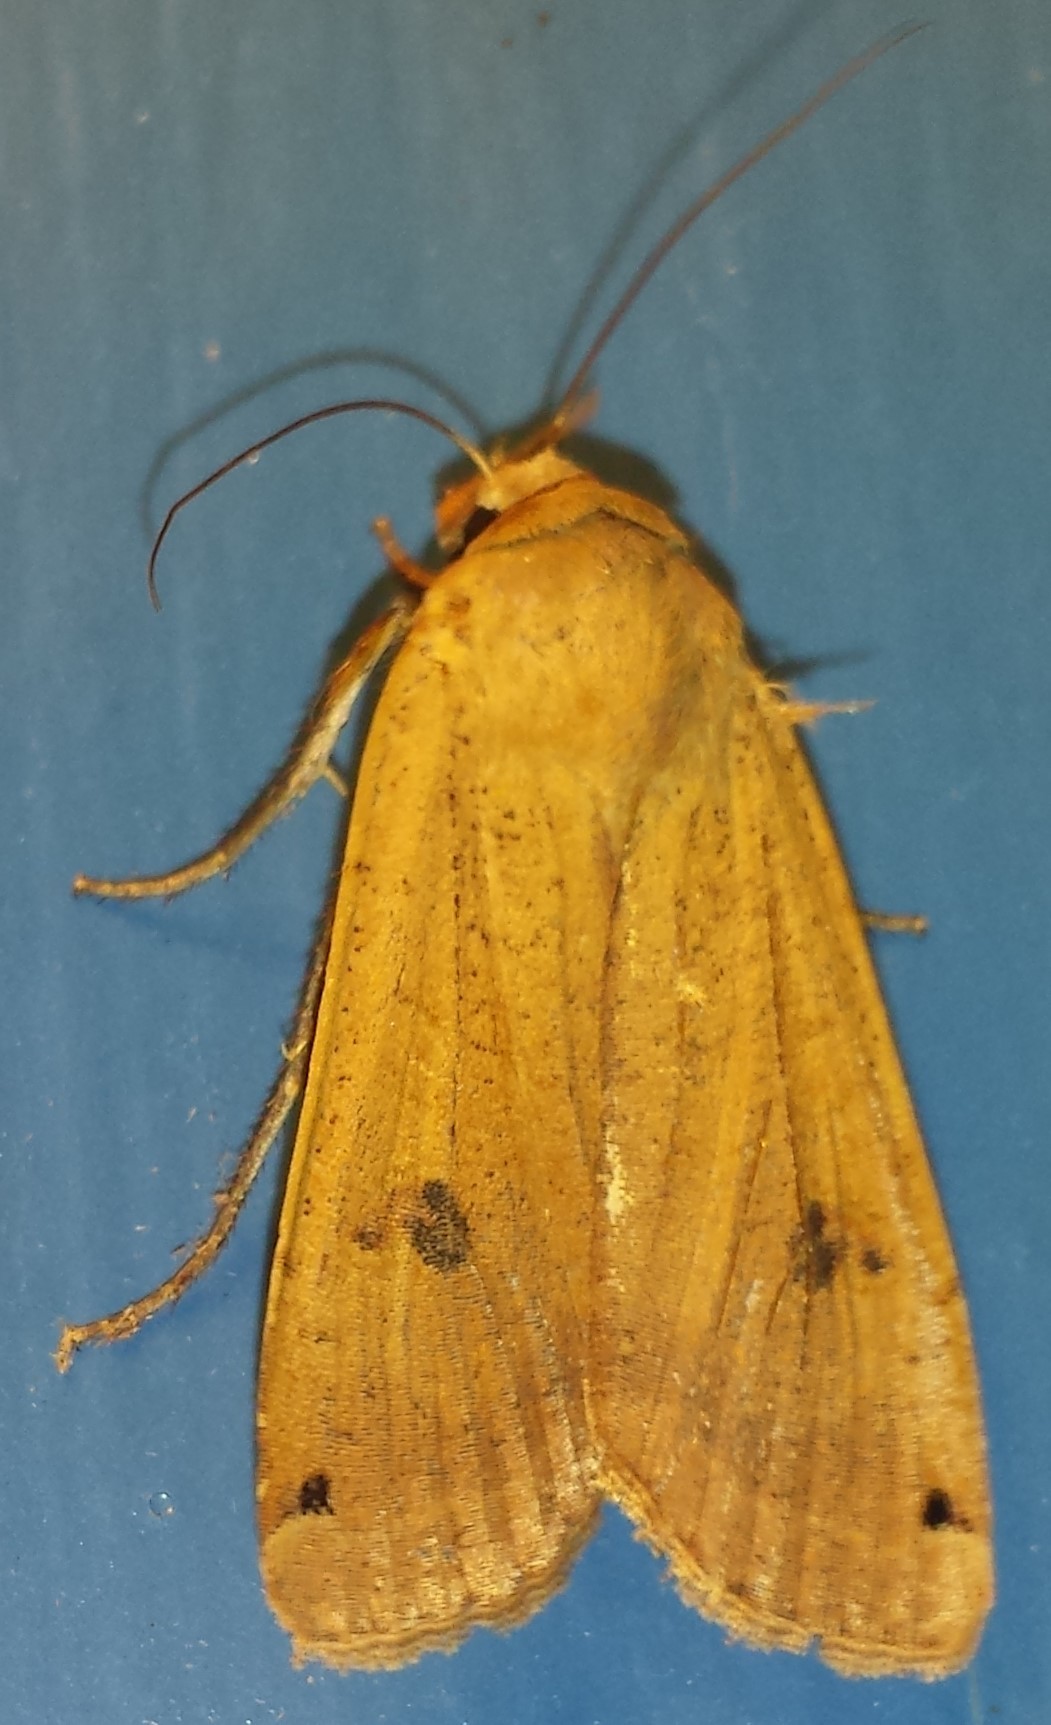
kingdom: Animalia
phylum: Arthropoda
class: Insecta
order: Lepidoptera
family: Noctuidae
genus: Noctua
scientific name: Noctua pronuba
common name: Large yellow underwing
